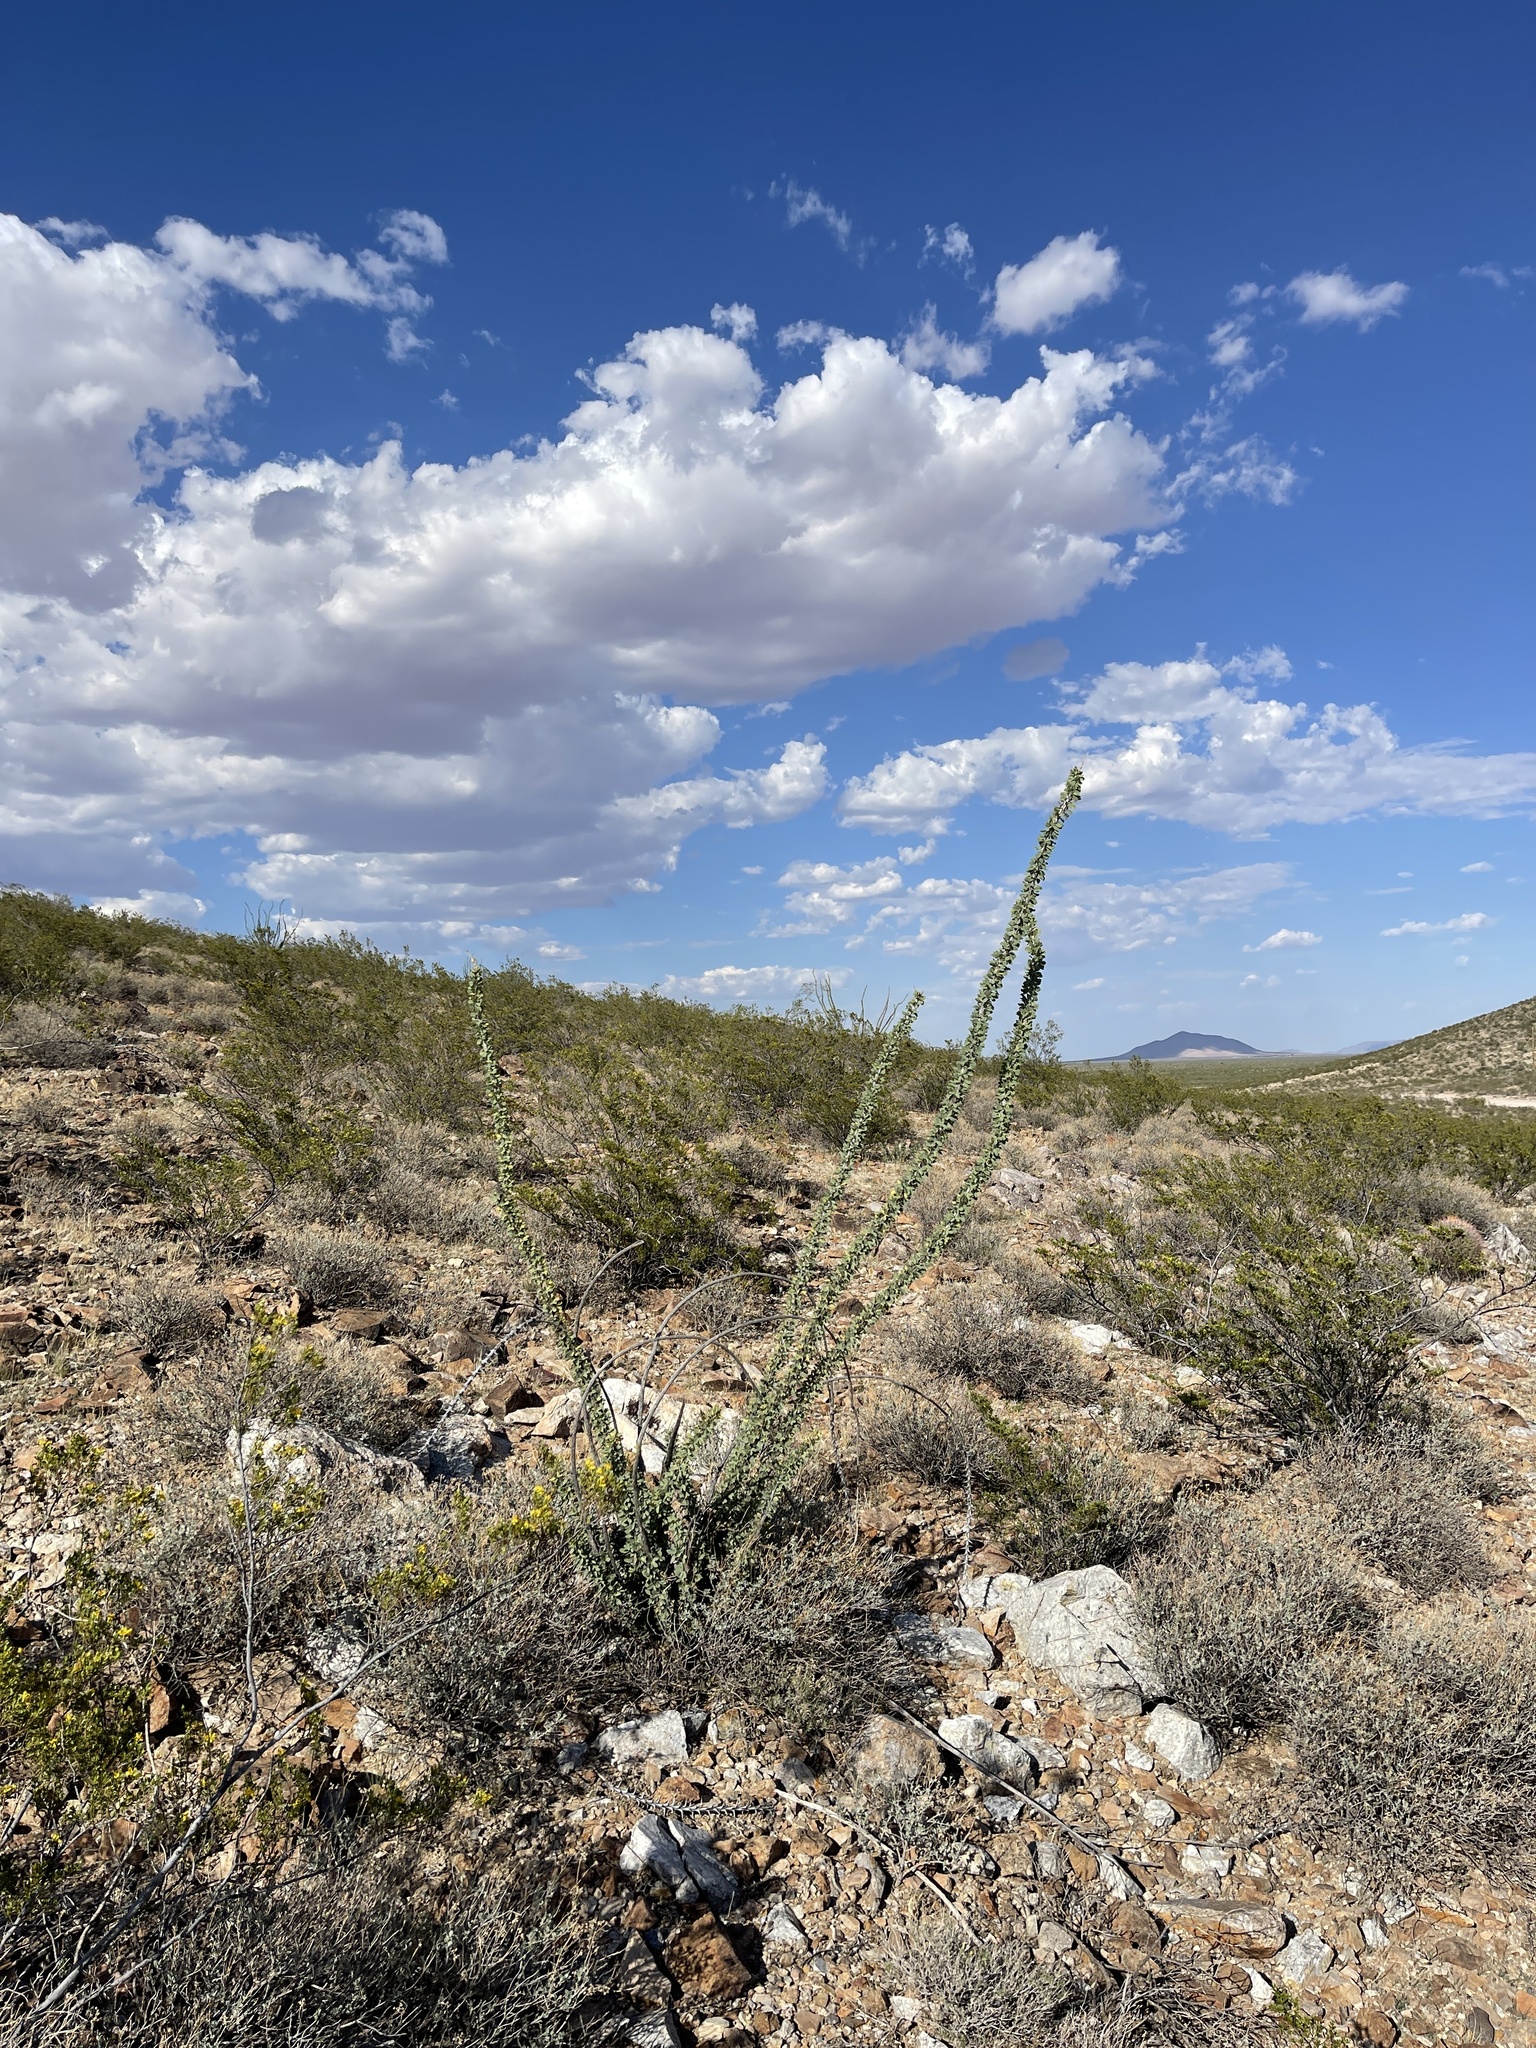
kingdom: Plantae
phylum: Tracheophyta
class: Magnoliopsida
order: Ericales
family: Fouquieriaceae
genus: Fouquieria
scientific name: Fouquieria splendens
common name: Vine-cactus
